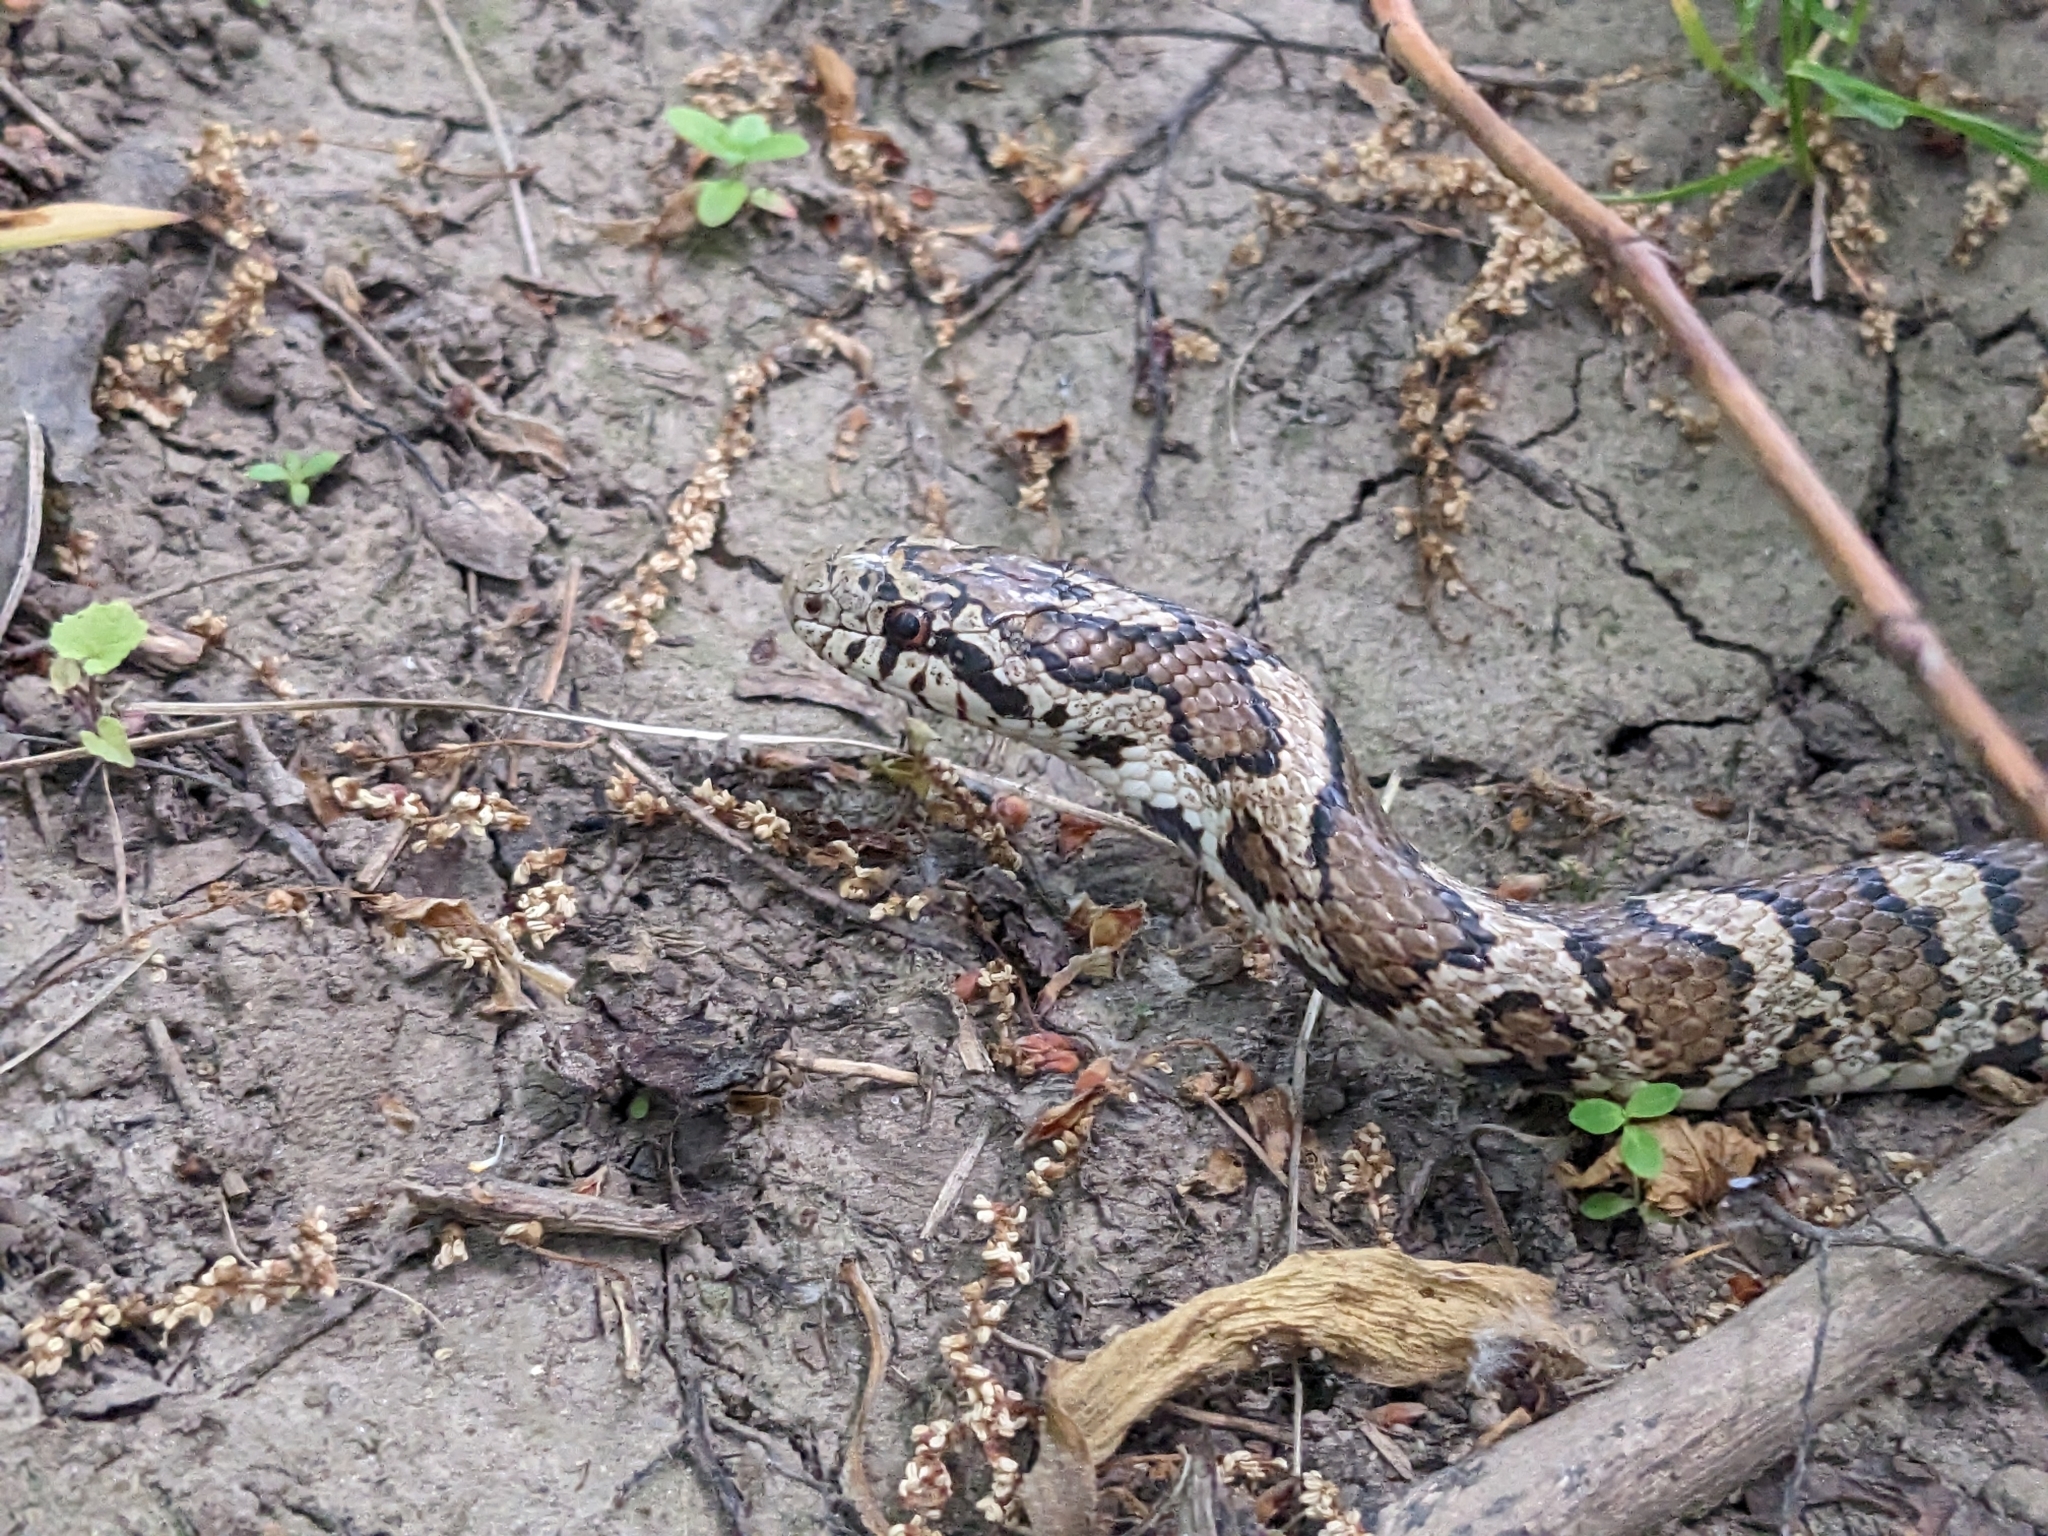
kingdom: Animalia
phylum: Chordata
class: Squamata
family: Colubridae
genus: Lampropeltis
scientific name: Lampropeltis triangulum
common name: Eastern milksnake
